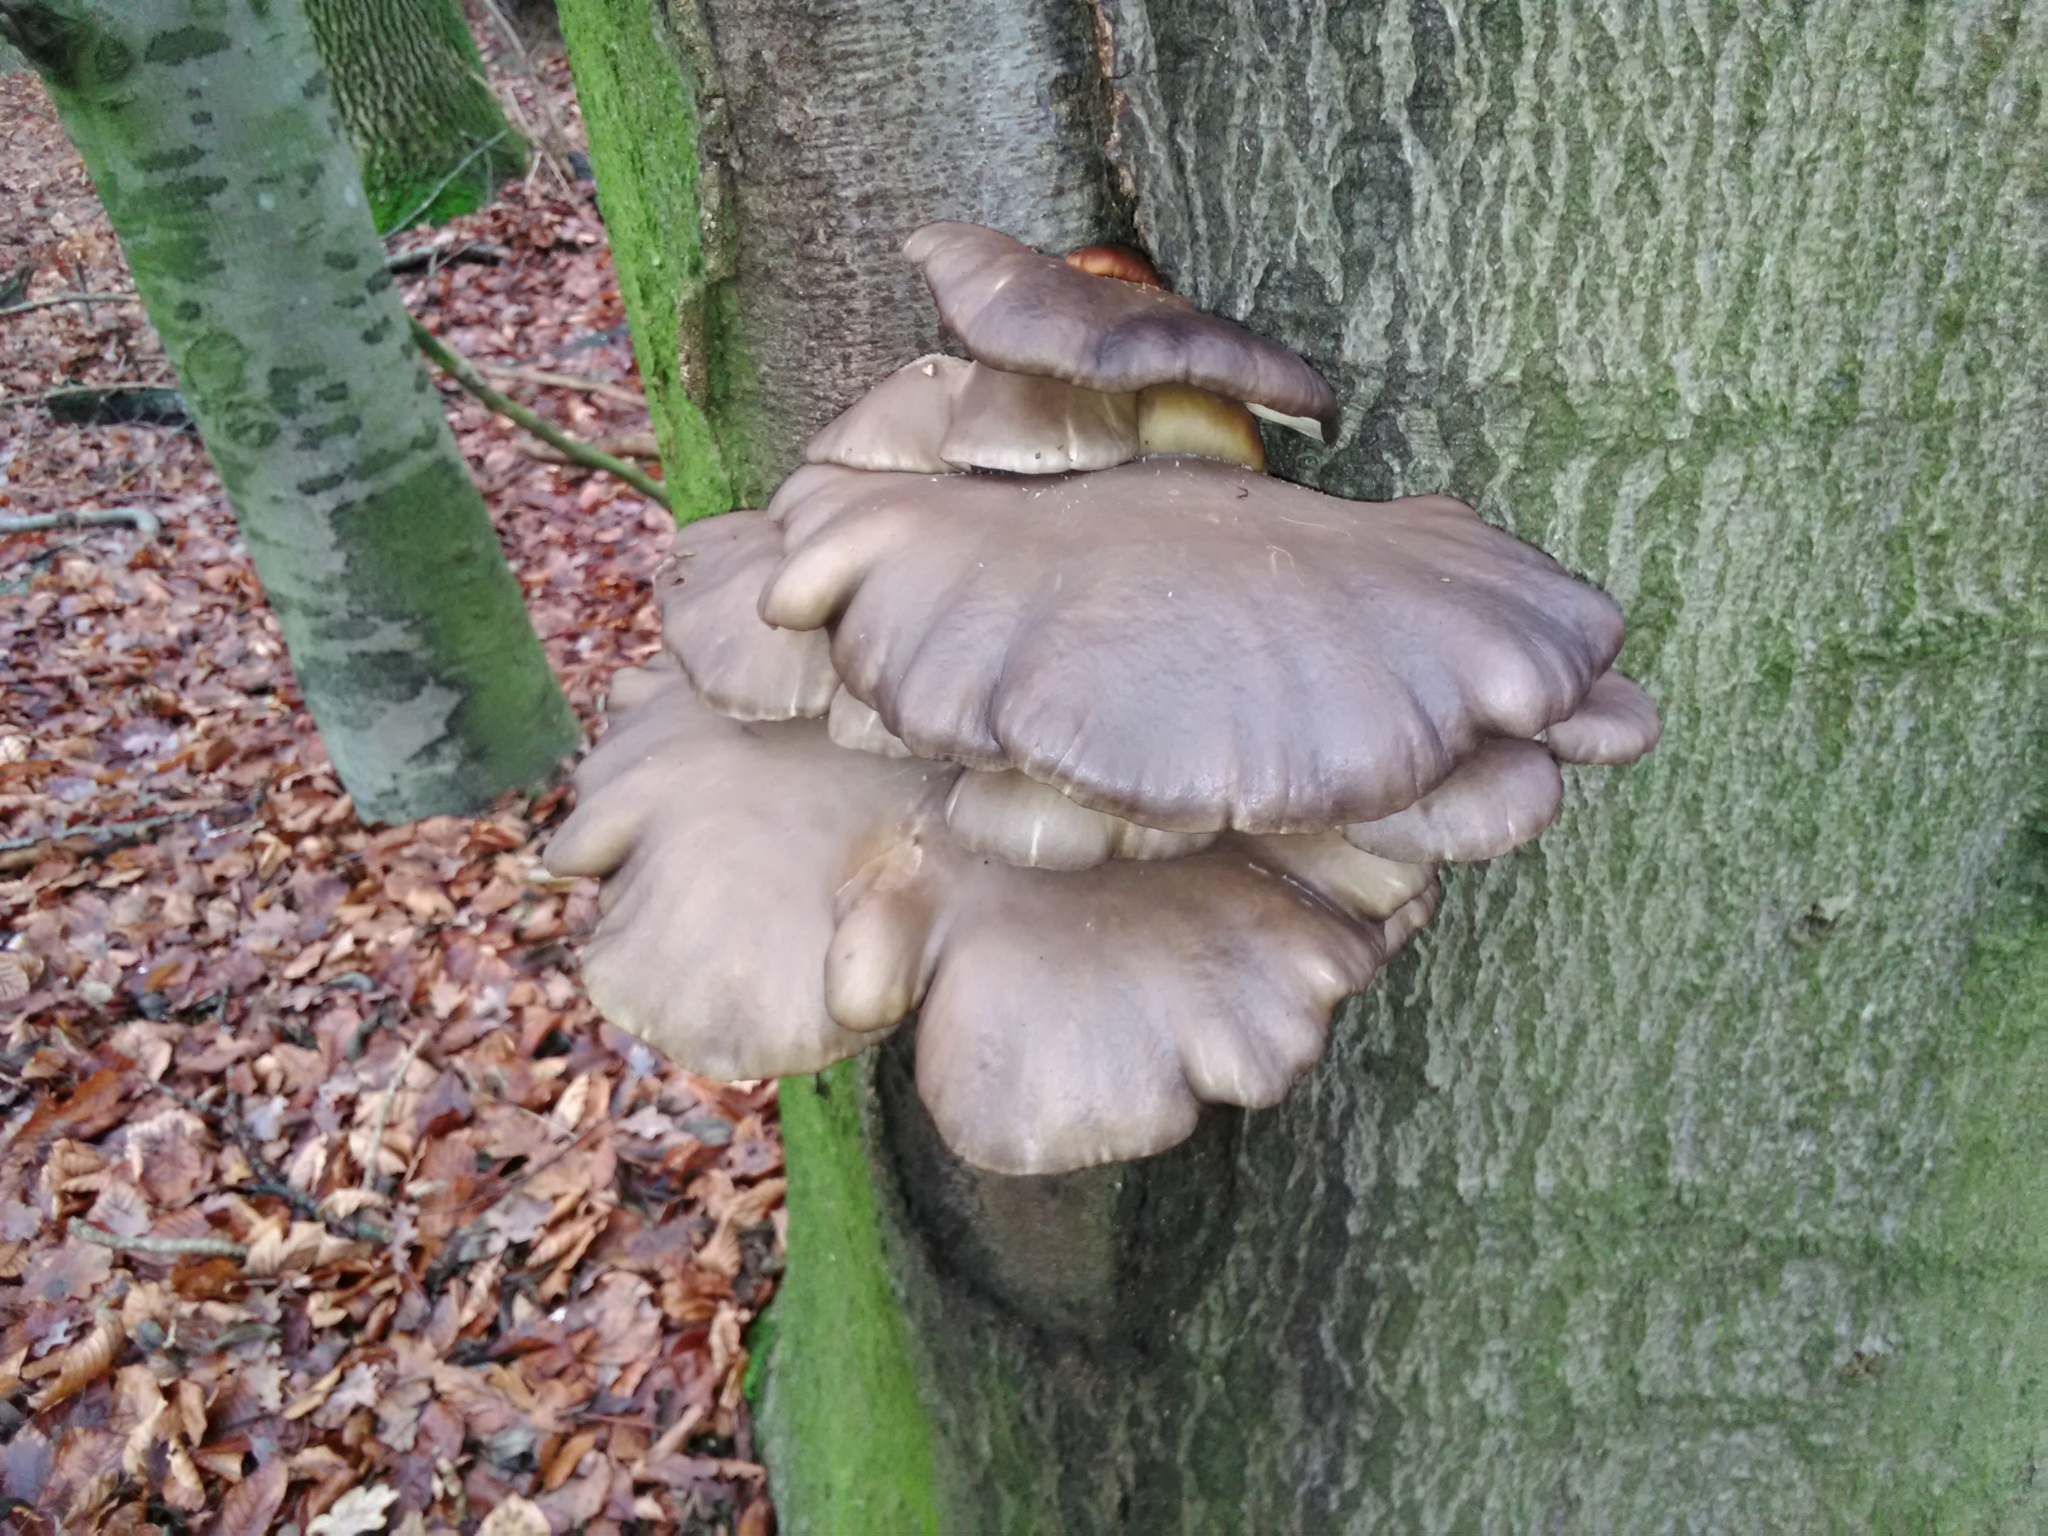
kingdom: Fungi
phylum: Basidiomycota
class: Agaricomycetes
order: Agaricales
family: Pleurotaceae
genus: Pleurotus
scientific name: Pleurotus ostreatus
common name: Oyster mushroom
